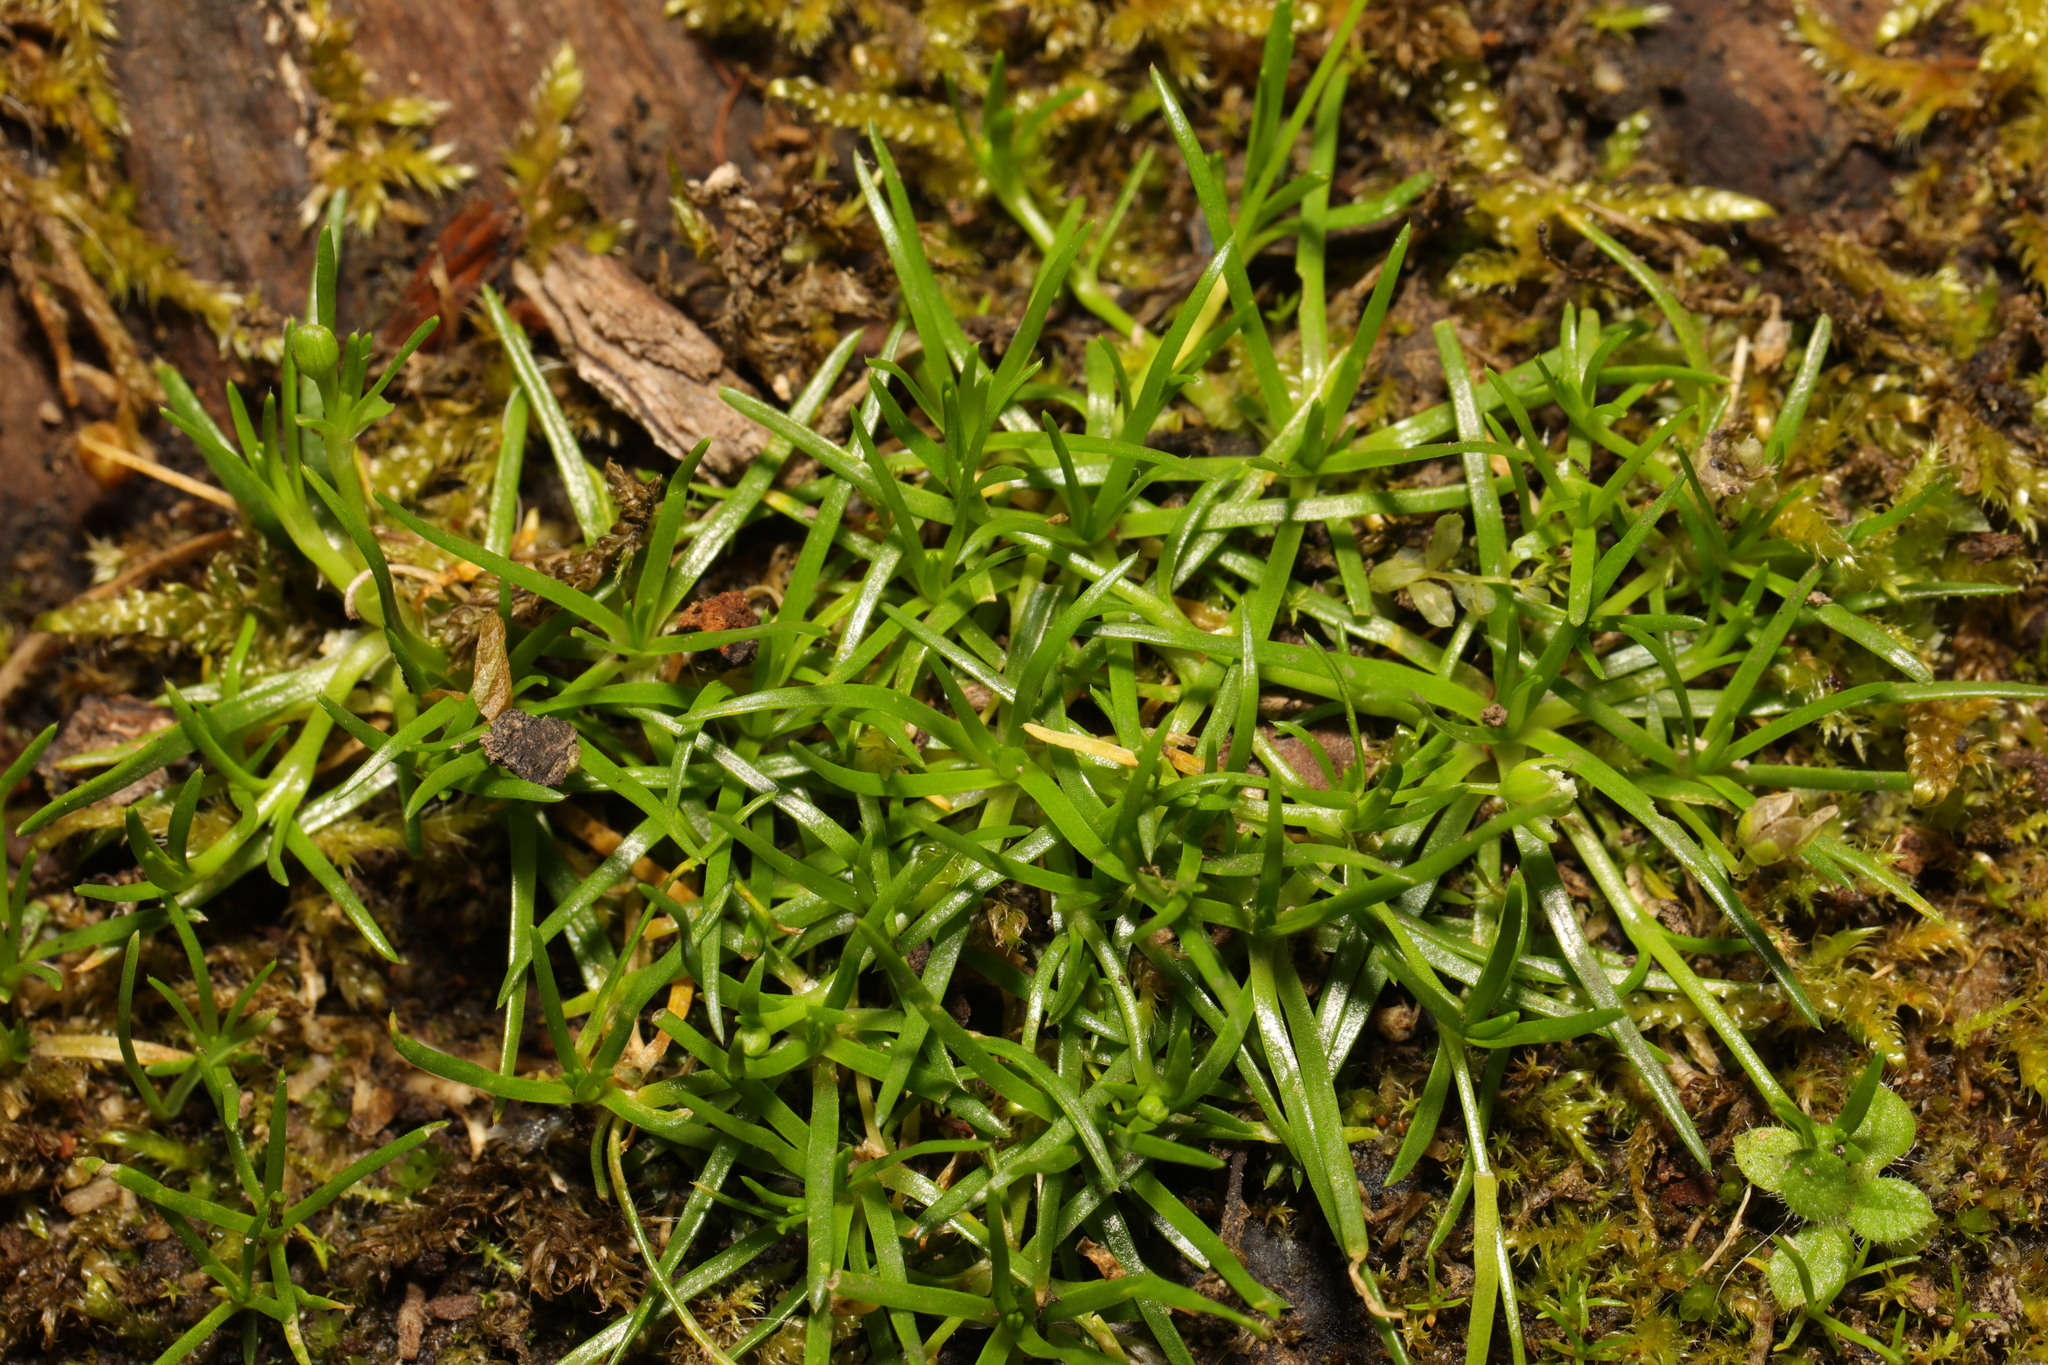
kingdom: Plantae
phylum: Tracheophyta
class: Magnoliopsida
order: Caryophyllales
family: Caryophyllaceae
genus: Sagina
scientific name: Sagina procumbens
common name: Procumbent pearlwort
